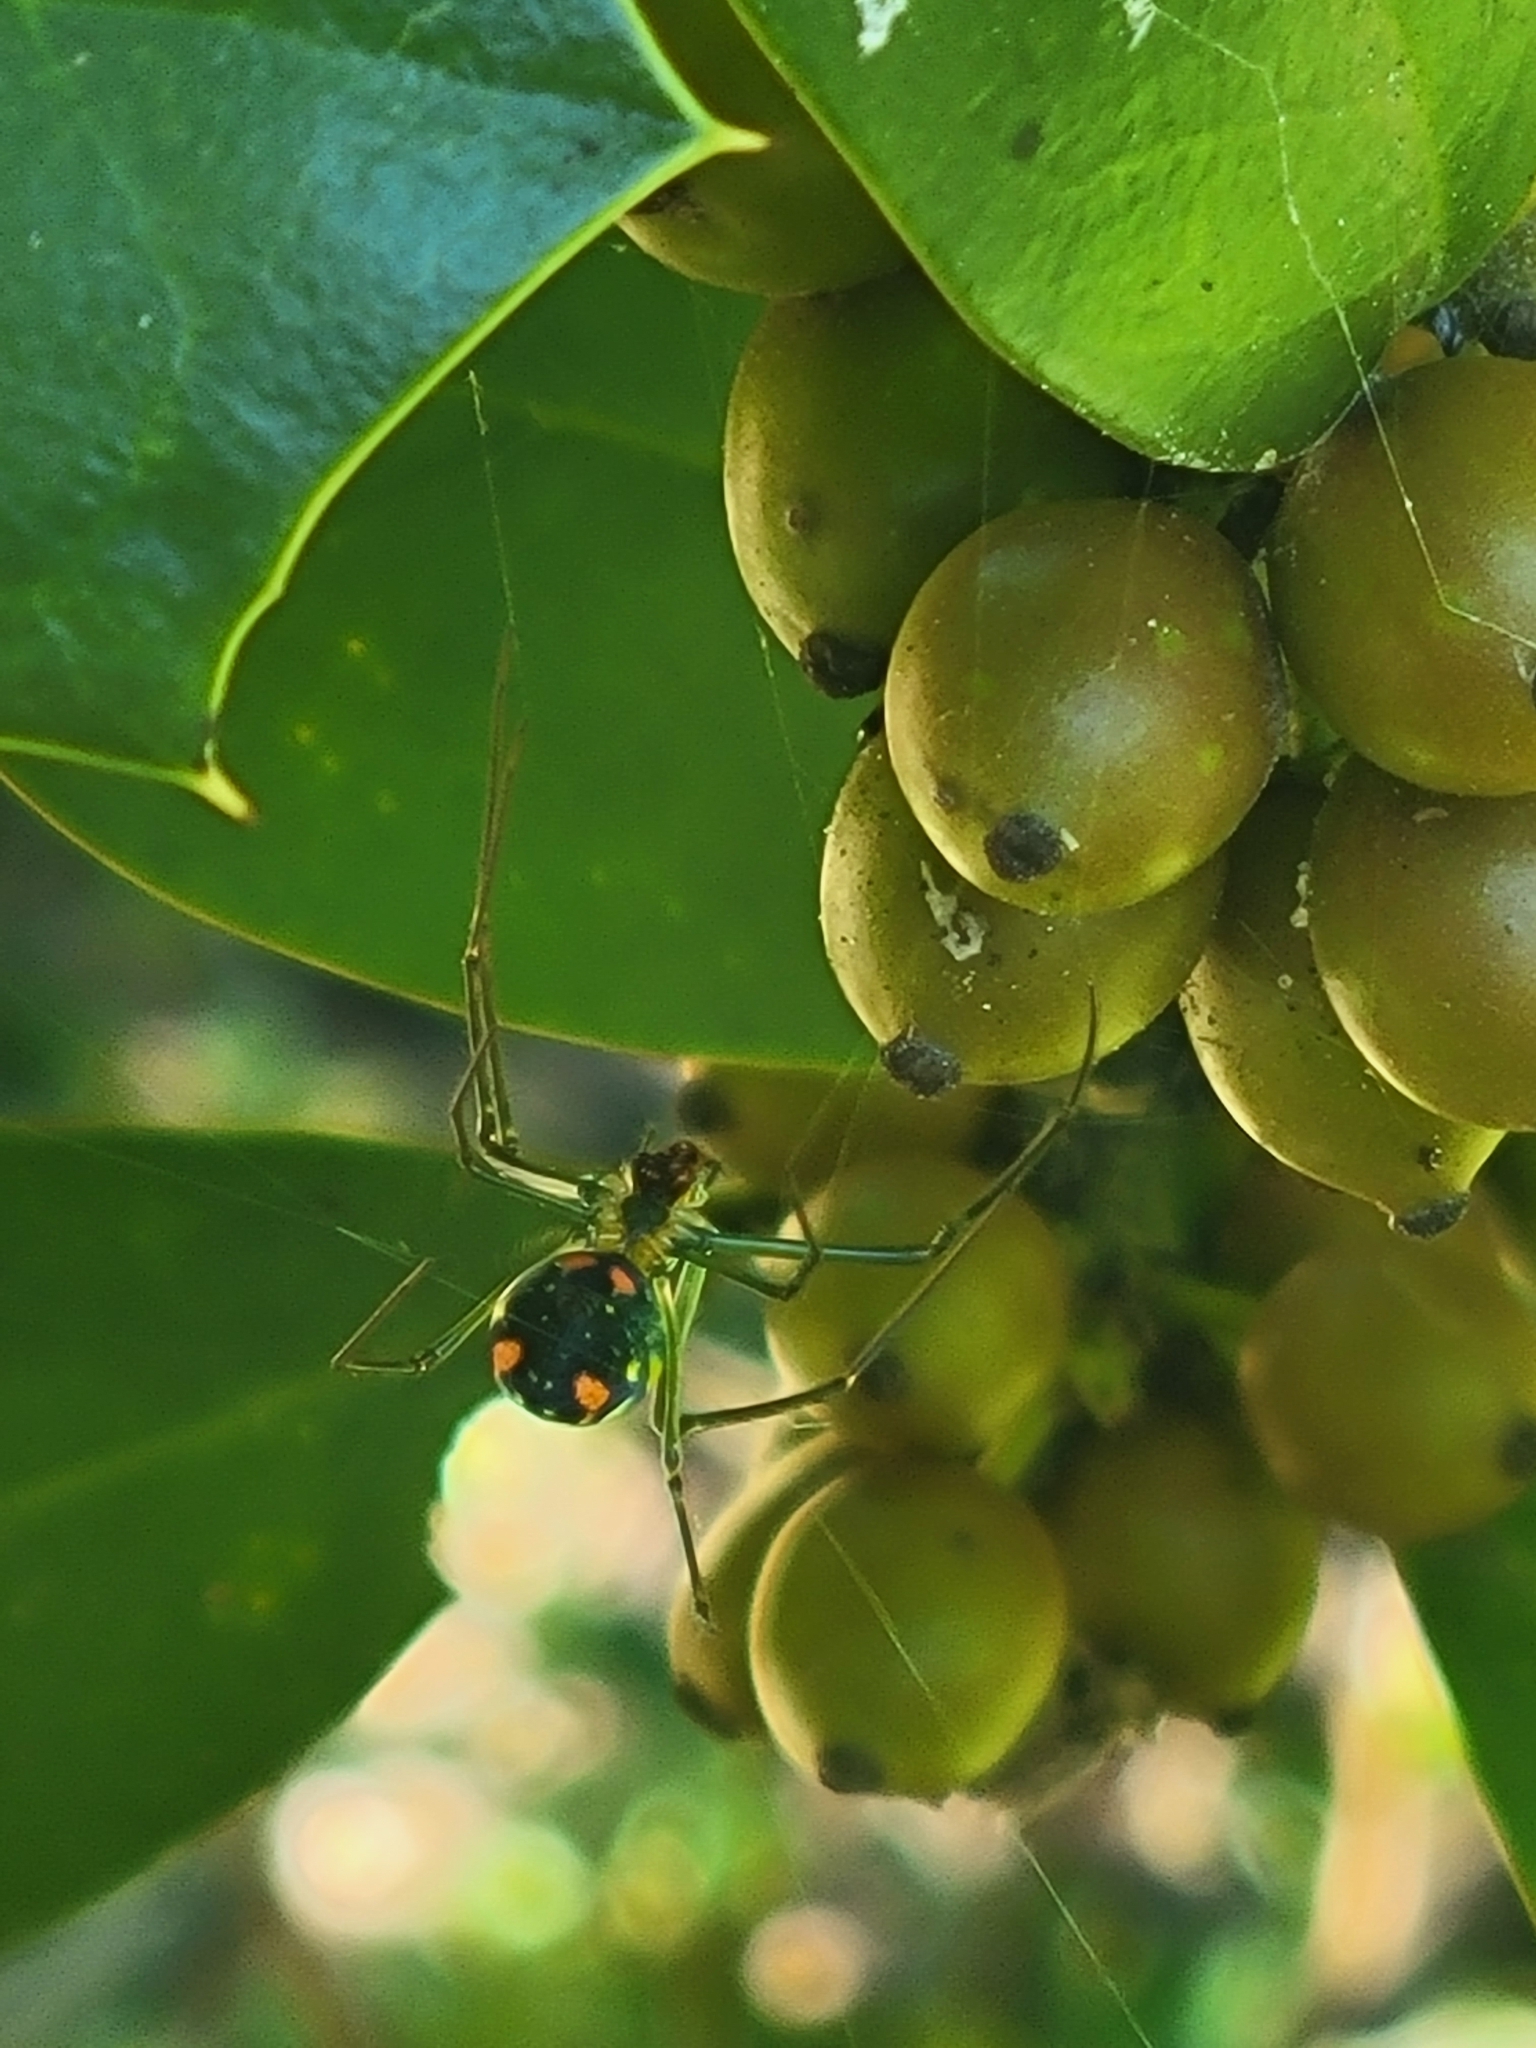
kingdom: Animalia
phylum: Arthropoda
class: Arachnida
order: Araneae
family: Tetragnathidae
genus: Leucauge
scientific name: Leucauge argyrobapta
